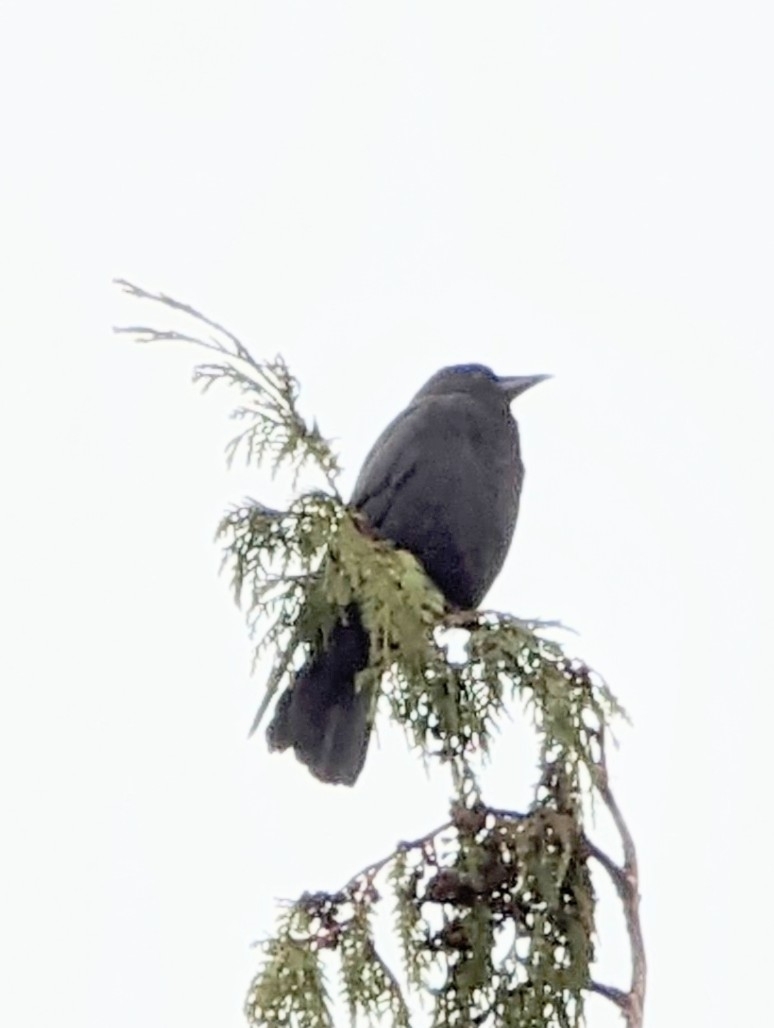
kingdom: Animalia
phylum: Chordata
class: Aves
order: Passeriformes
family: Corvidae
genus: Corvus
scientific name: Corvus brachyrhynchos
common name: American crow
